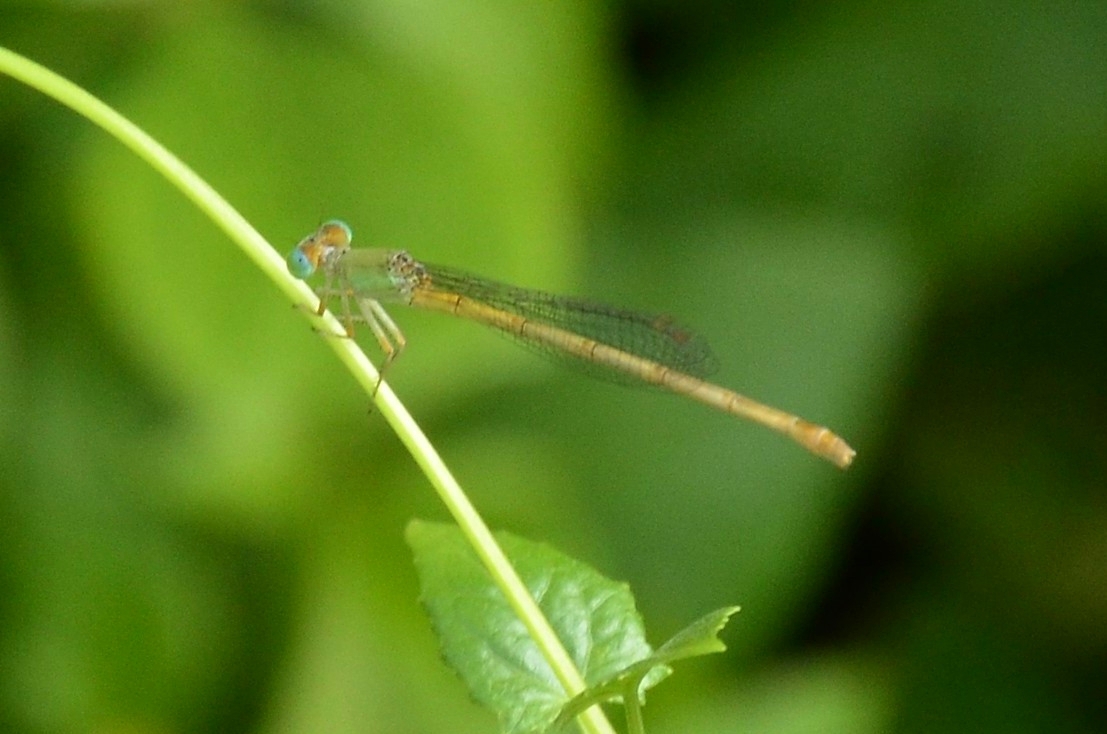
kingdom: Animalia
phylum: Arthropoda
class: Insecta
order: Odonata
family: Coenagrionidae
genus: Ceriagrion
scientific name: Ceriagrion coromandelianum
